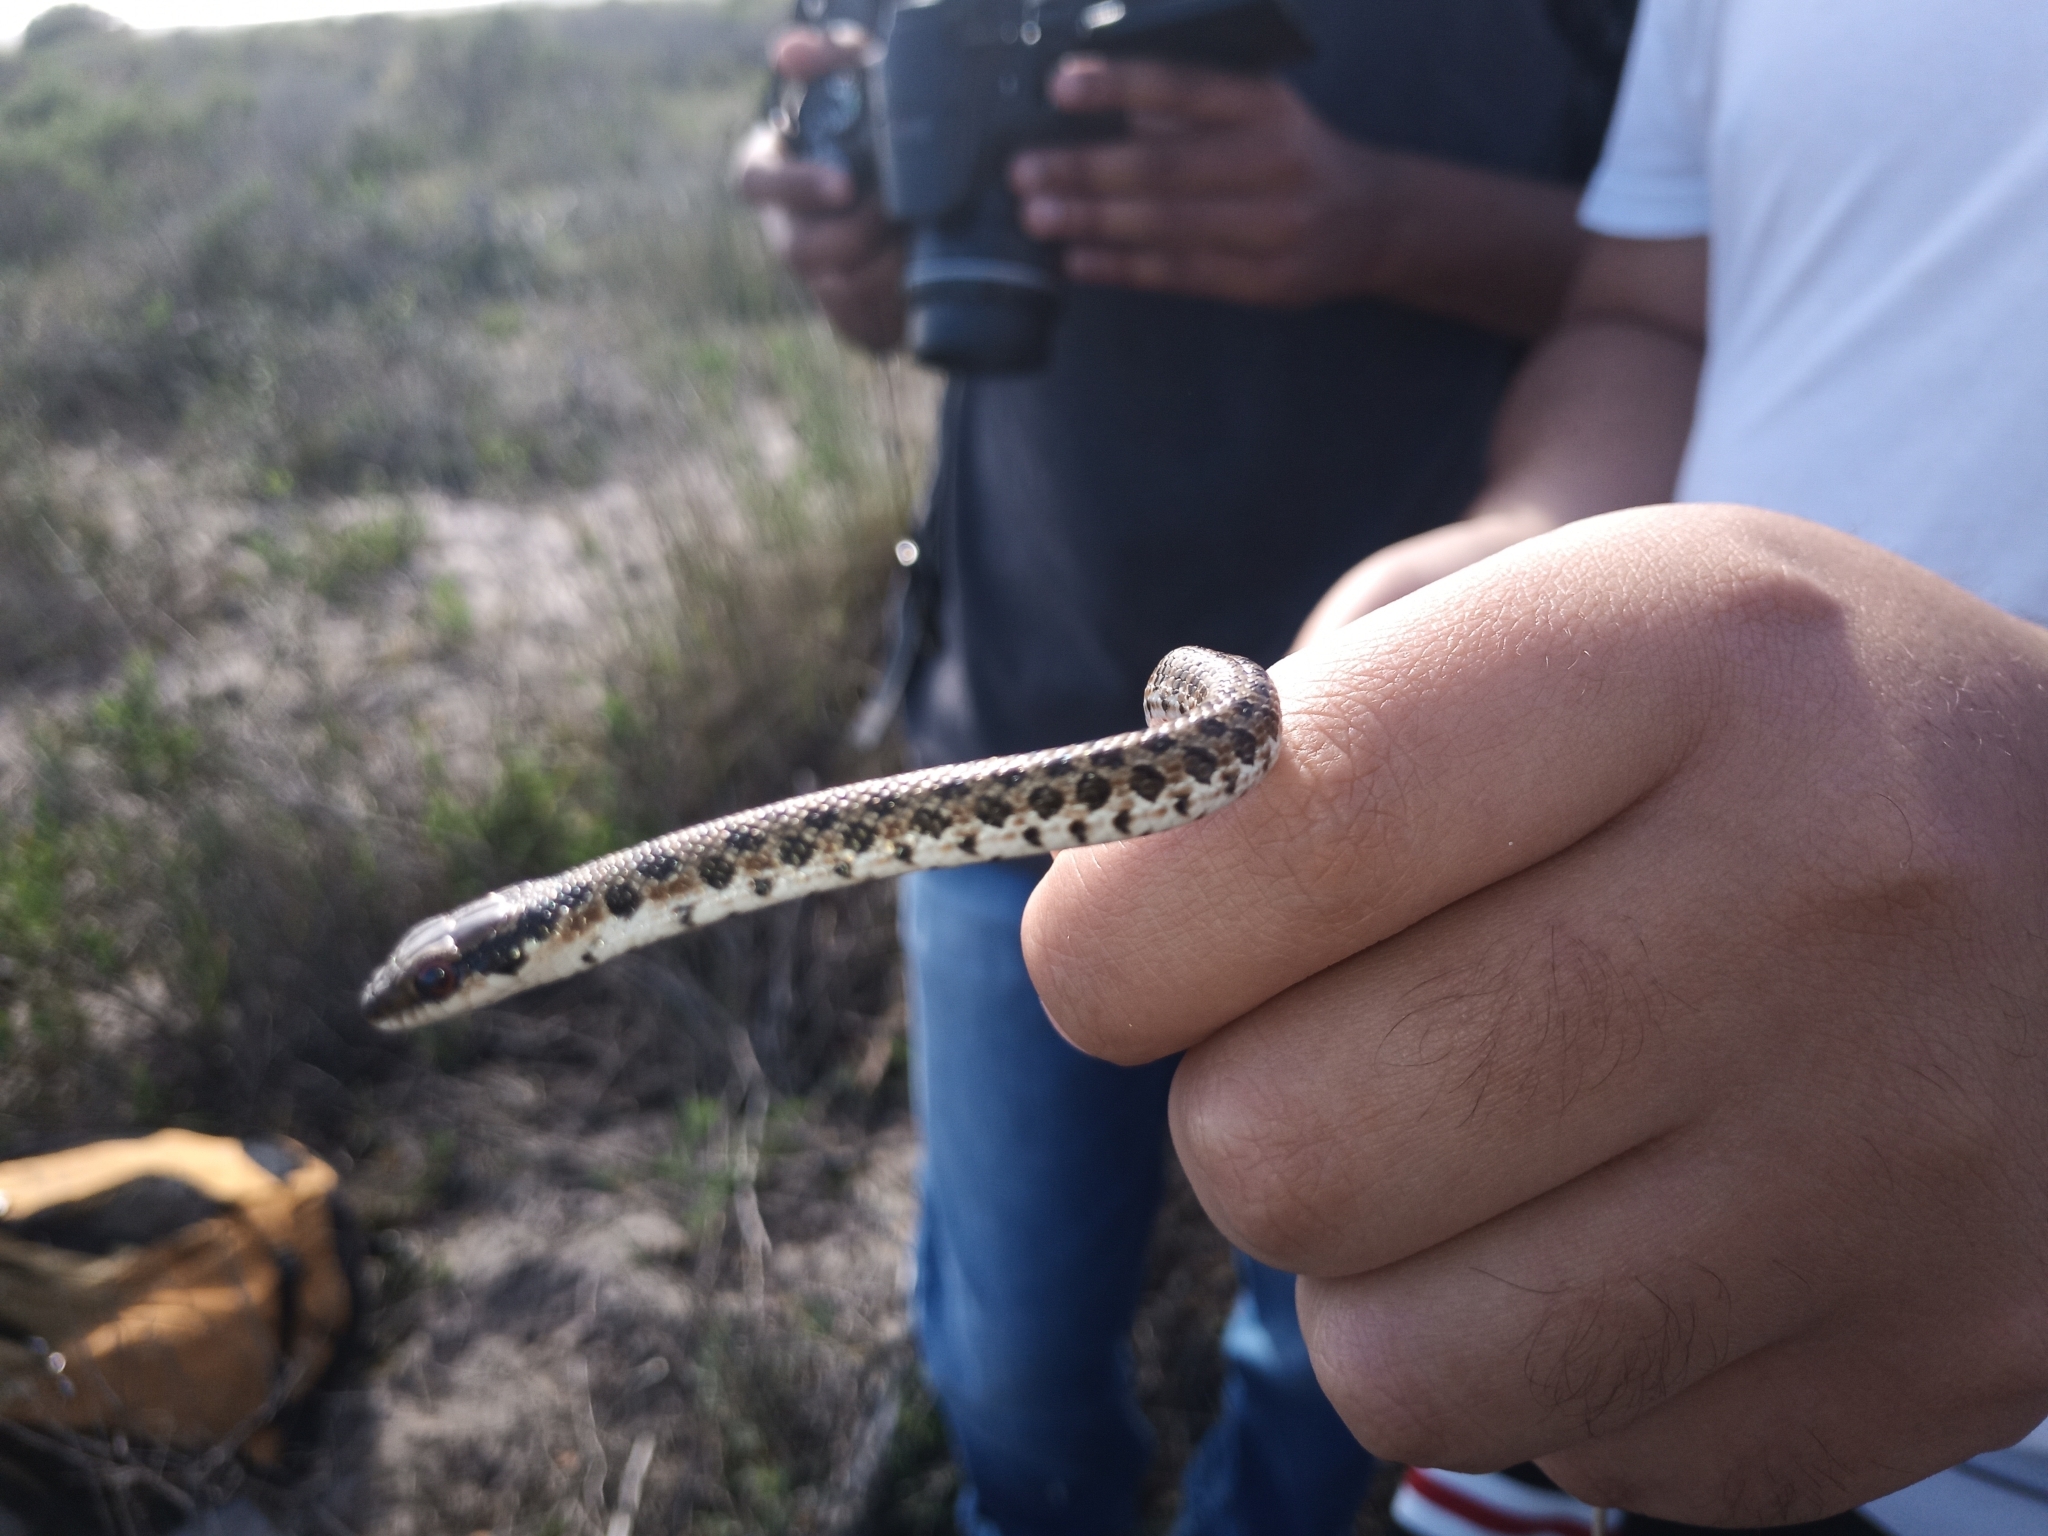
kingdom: Animalia
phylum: Chordata
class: Squamata
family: Psammophiidae
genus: Psammophylax
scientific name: Psammophylax rhombeatus
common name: Rhombic skaapsteker
